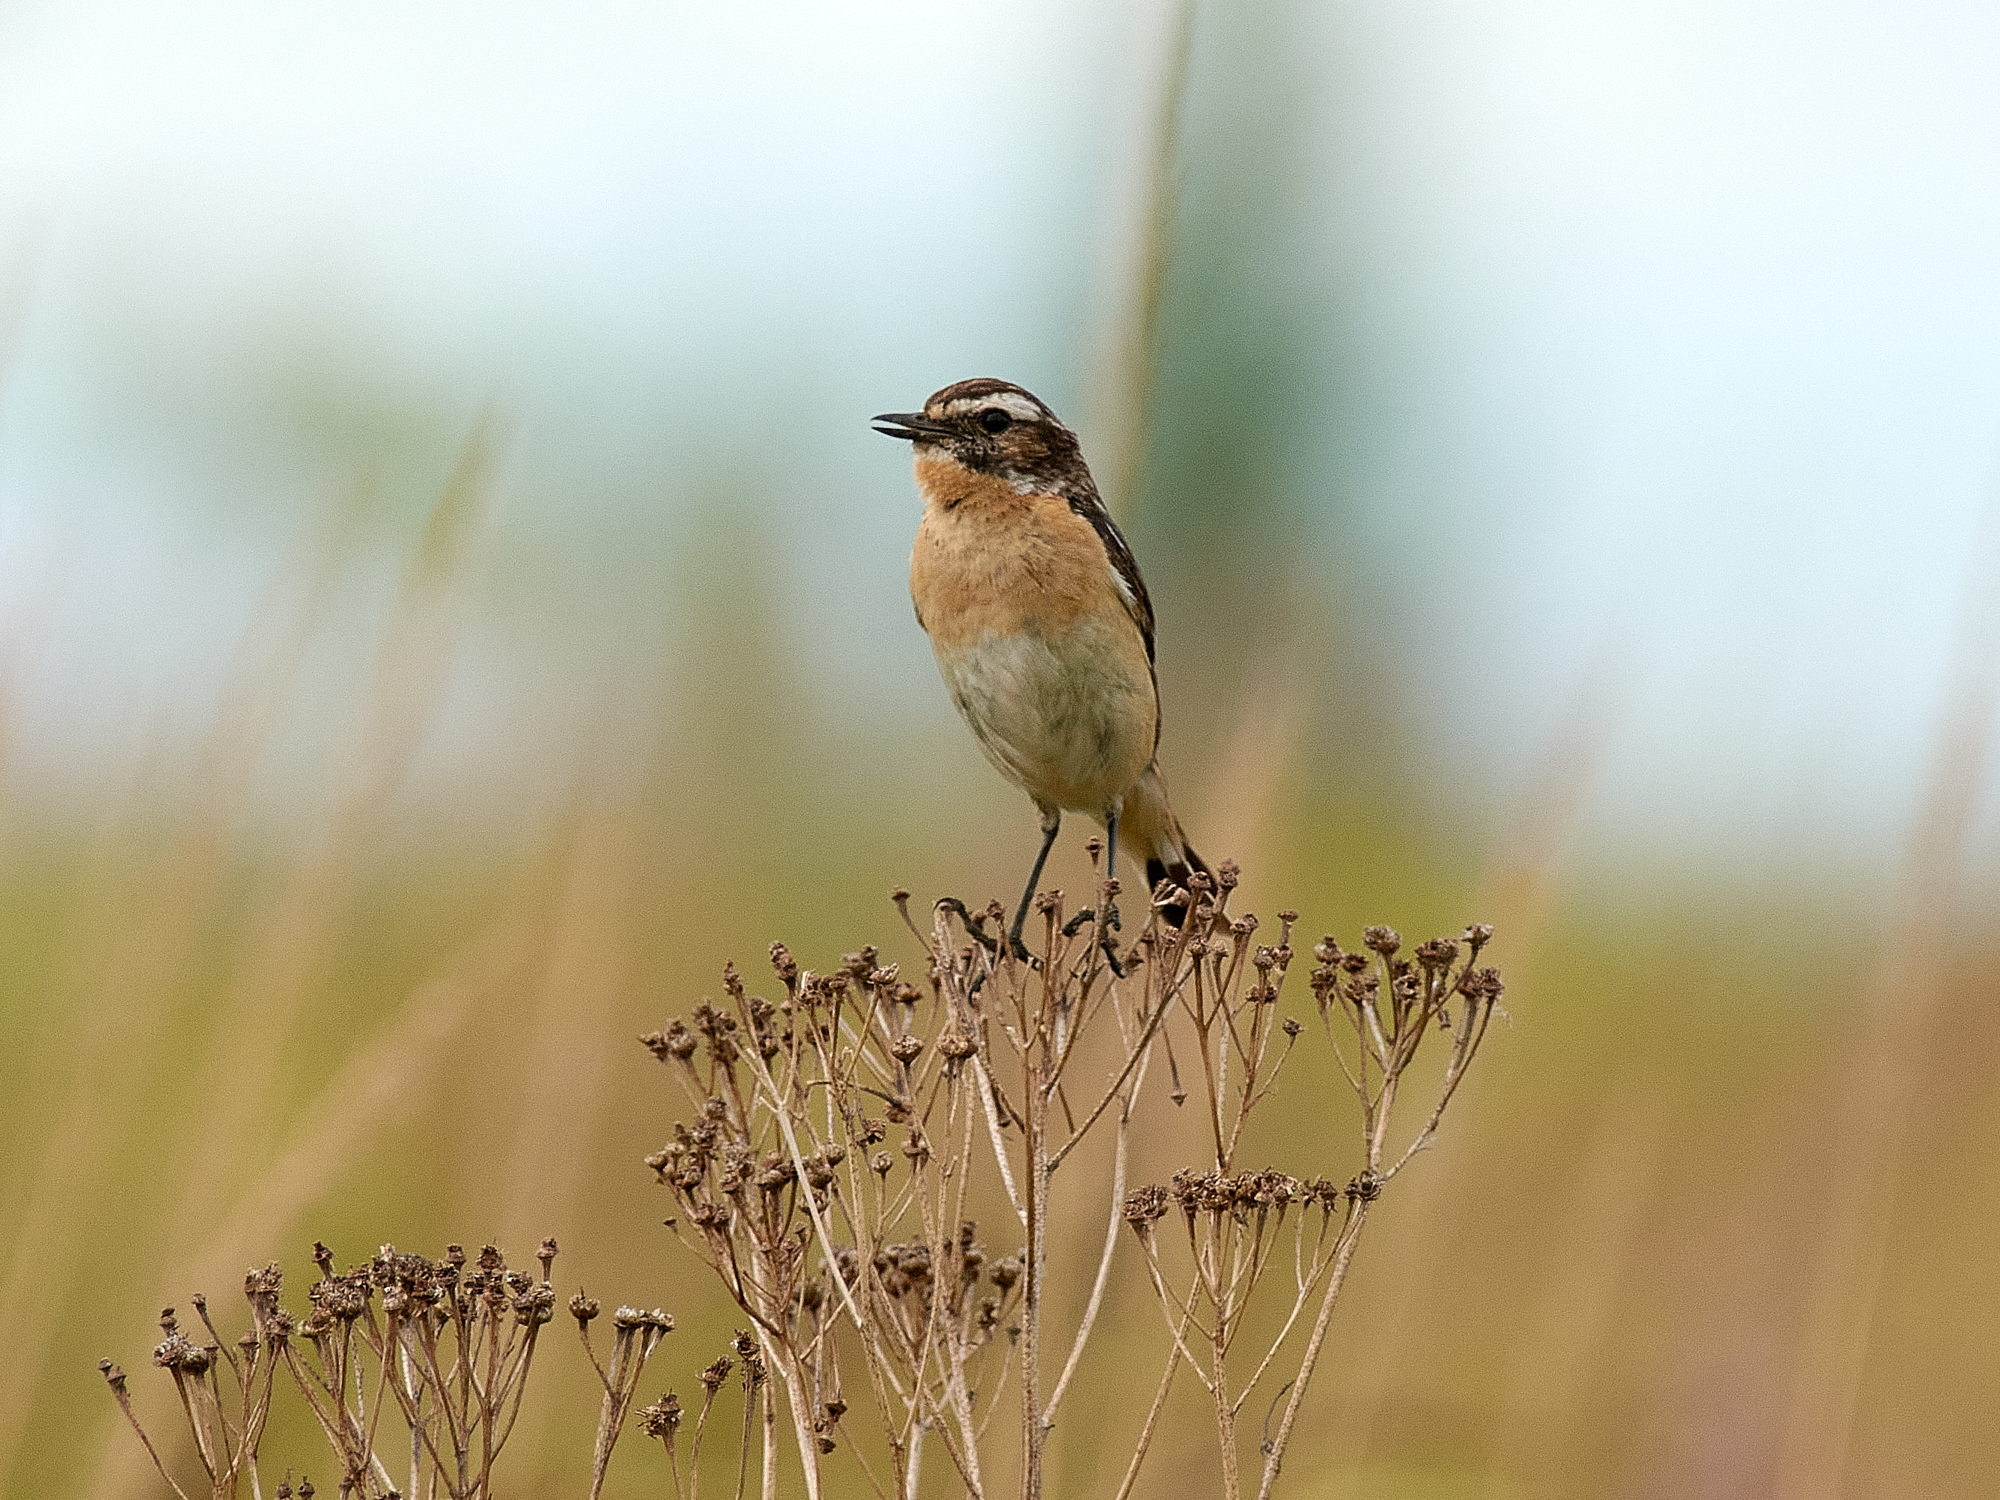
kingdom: Animalia
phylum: Chordata
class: Aves
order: Passeriformes
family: Muscicapidae
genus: Saxicola
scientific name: Saxicola rubetra
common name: Whinchat
